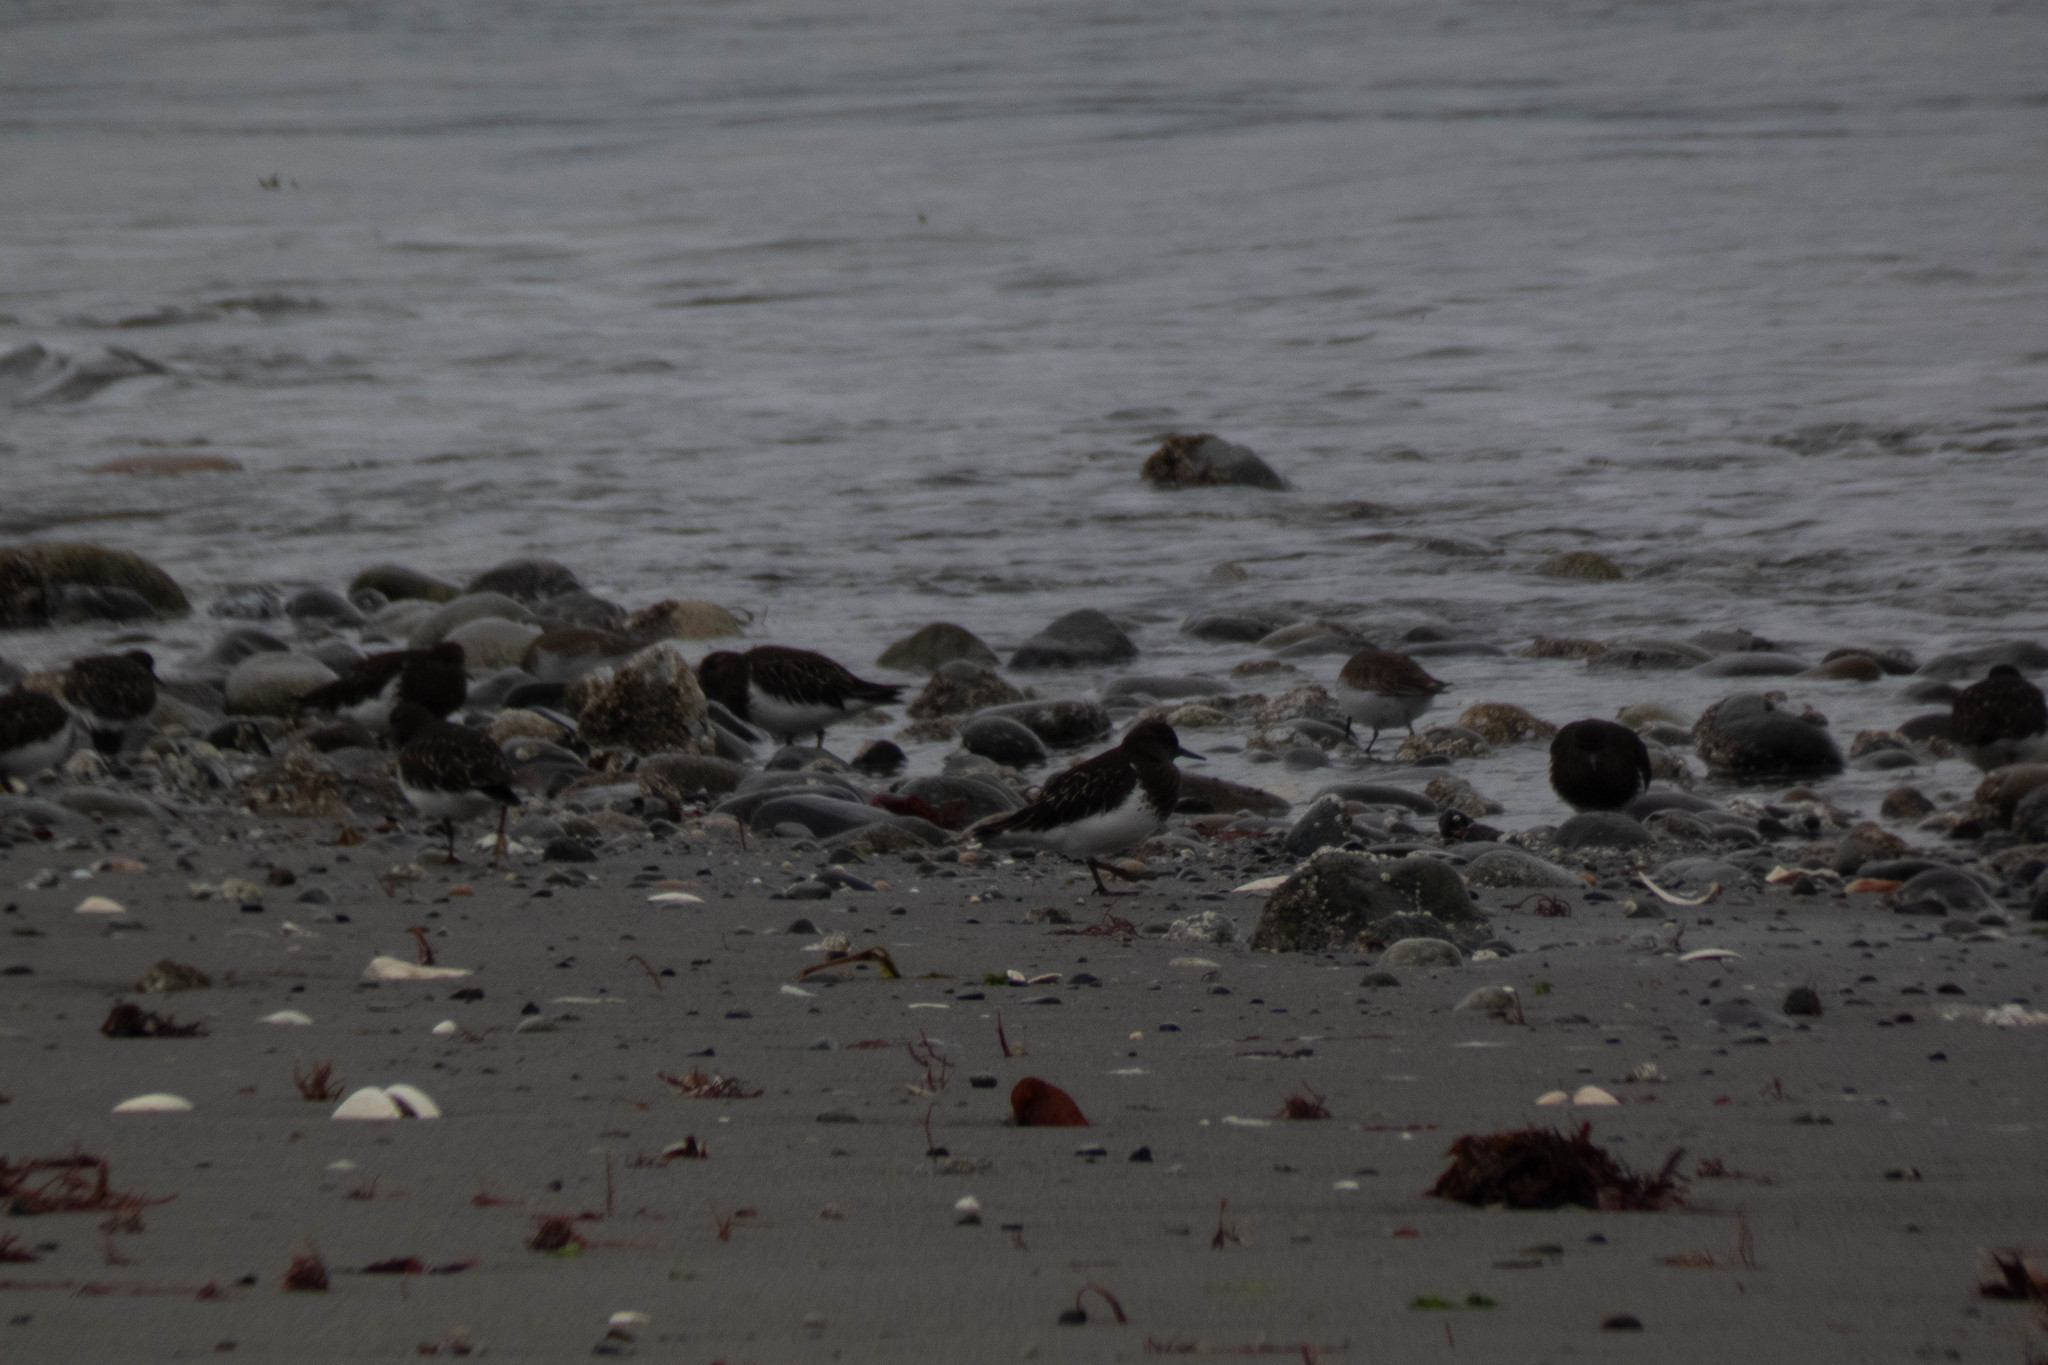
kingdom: Animalia
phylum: Chordata
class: Aves
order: Charadriiformes
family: Scolopacidae
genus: Arenaria
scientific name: Arenaria melanocephala
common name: Black turnstone
